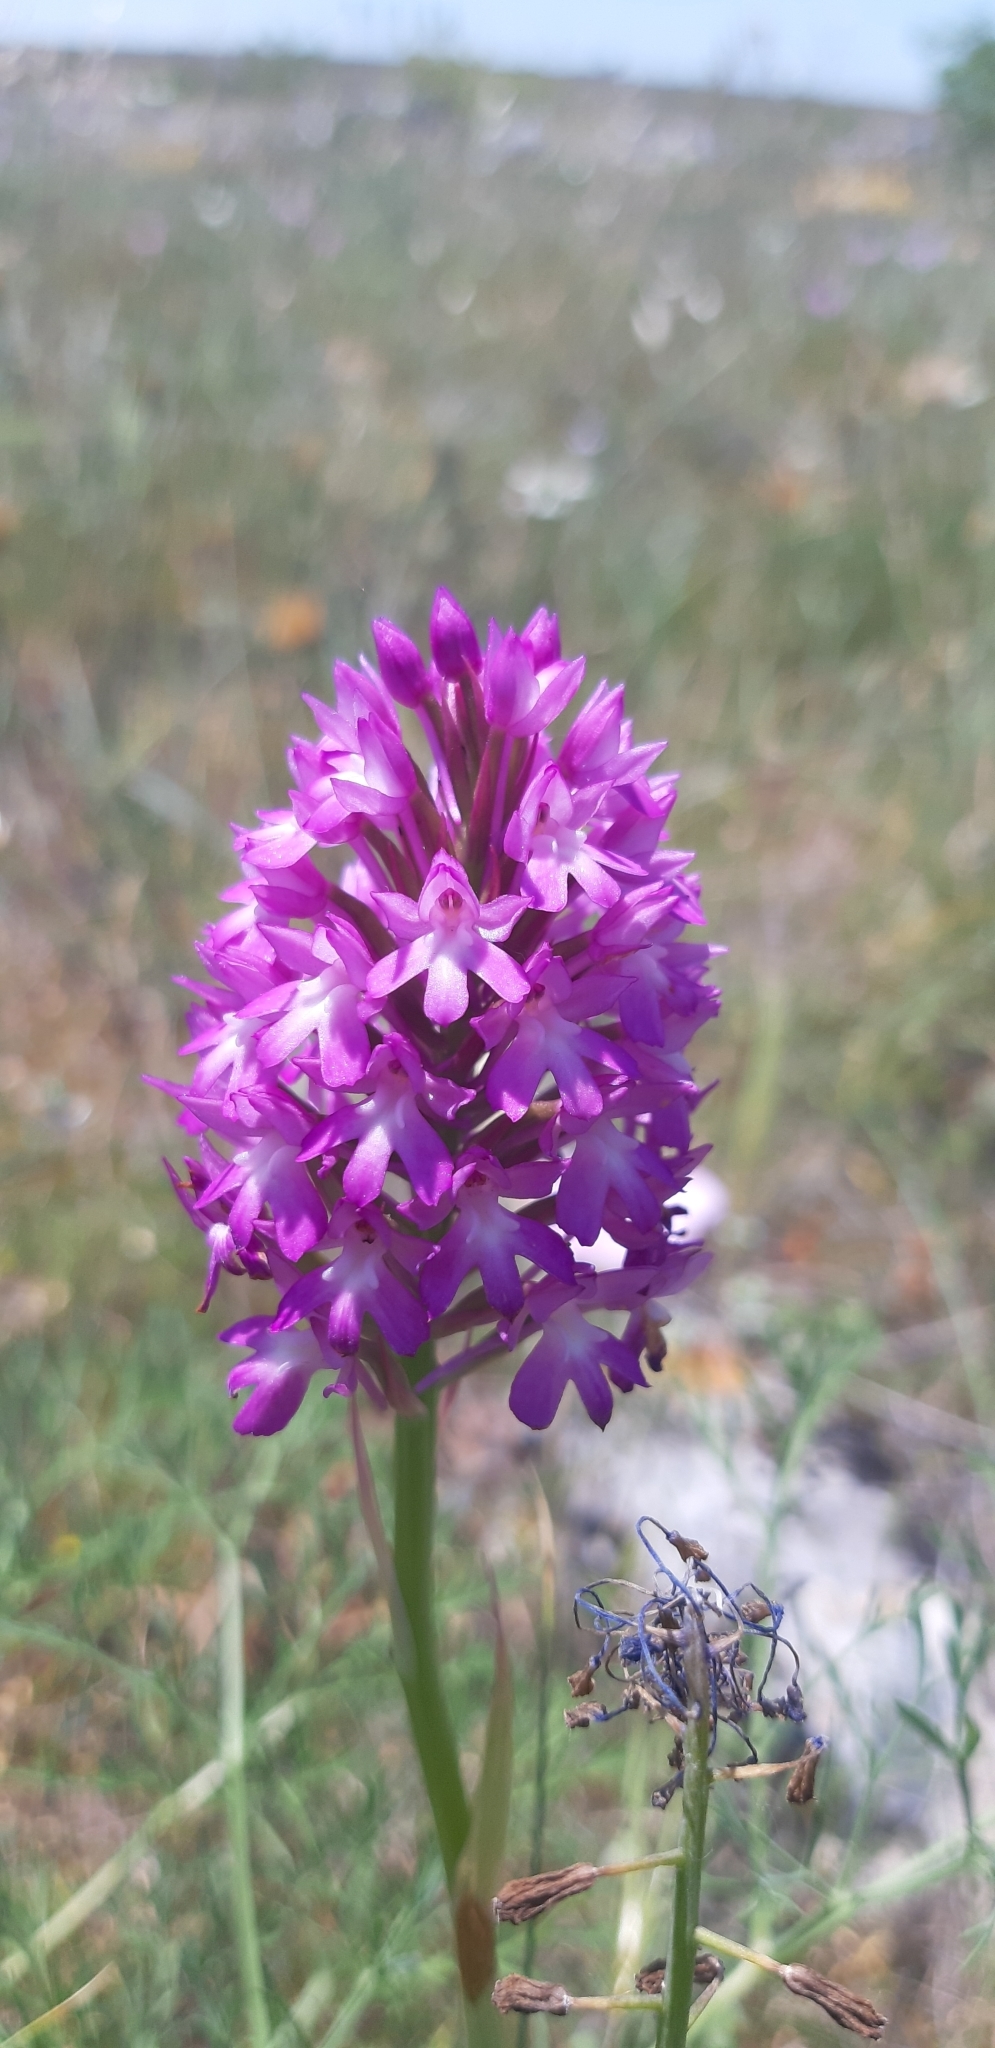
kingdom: Plantae
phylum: Tracheophyta
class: Liliopsida
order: Asparagales
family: Orchidaceae
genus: Anacamptis
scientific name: Anacamptis pyramidalis
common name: Pyramidal orchid
